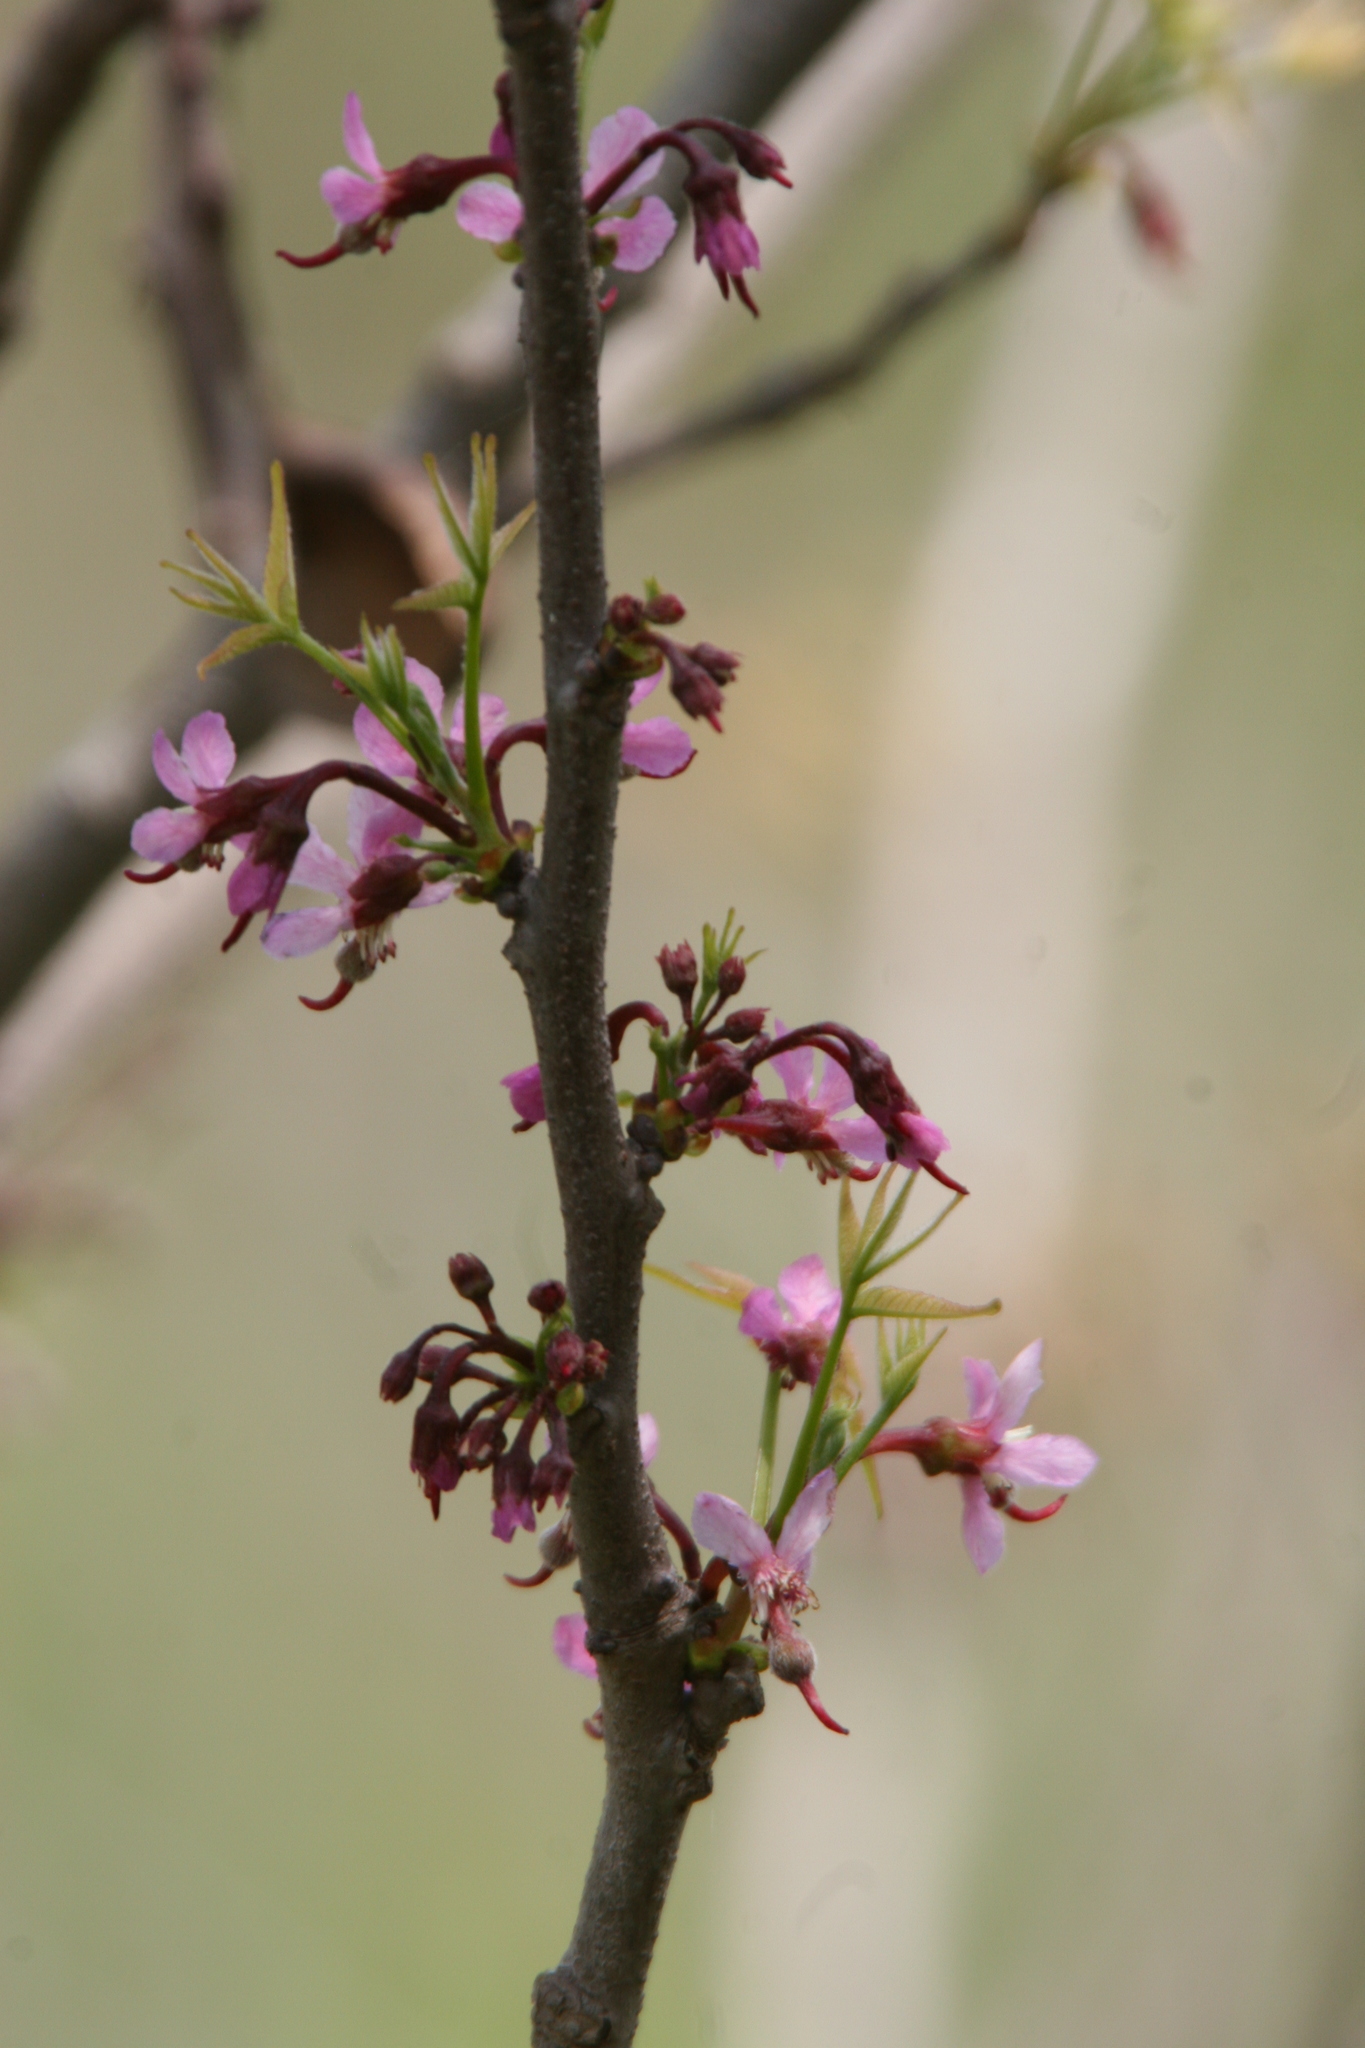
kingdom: Plantae
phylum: Tracheophyta
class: Magnoliopsida
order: Sapindales
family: Sapindaceae
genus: Ungnadia
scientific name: Ungnadia speciosa
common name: Texas-buckeye
